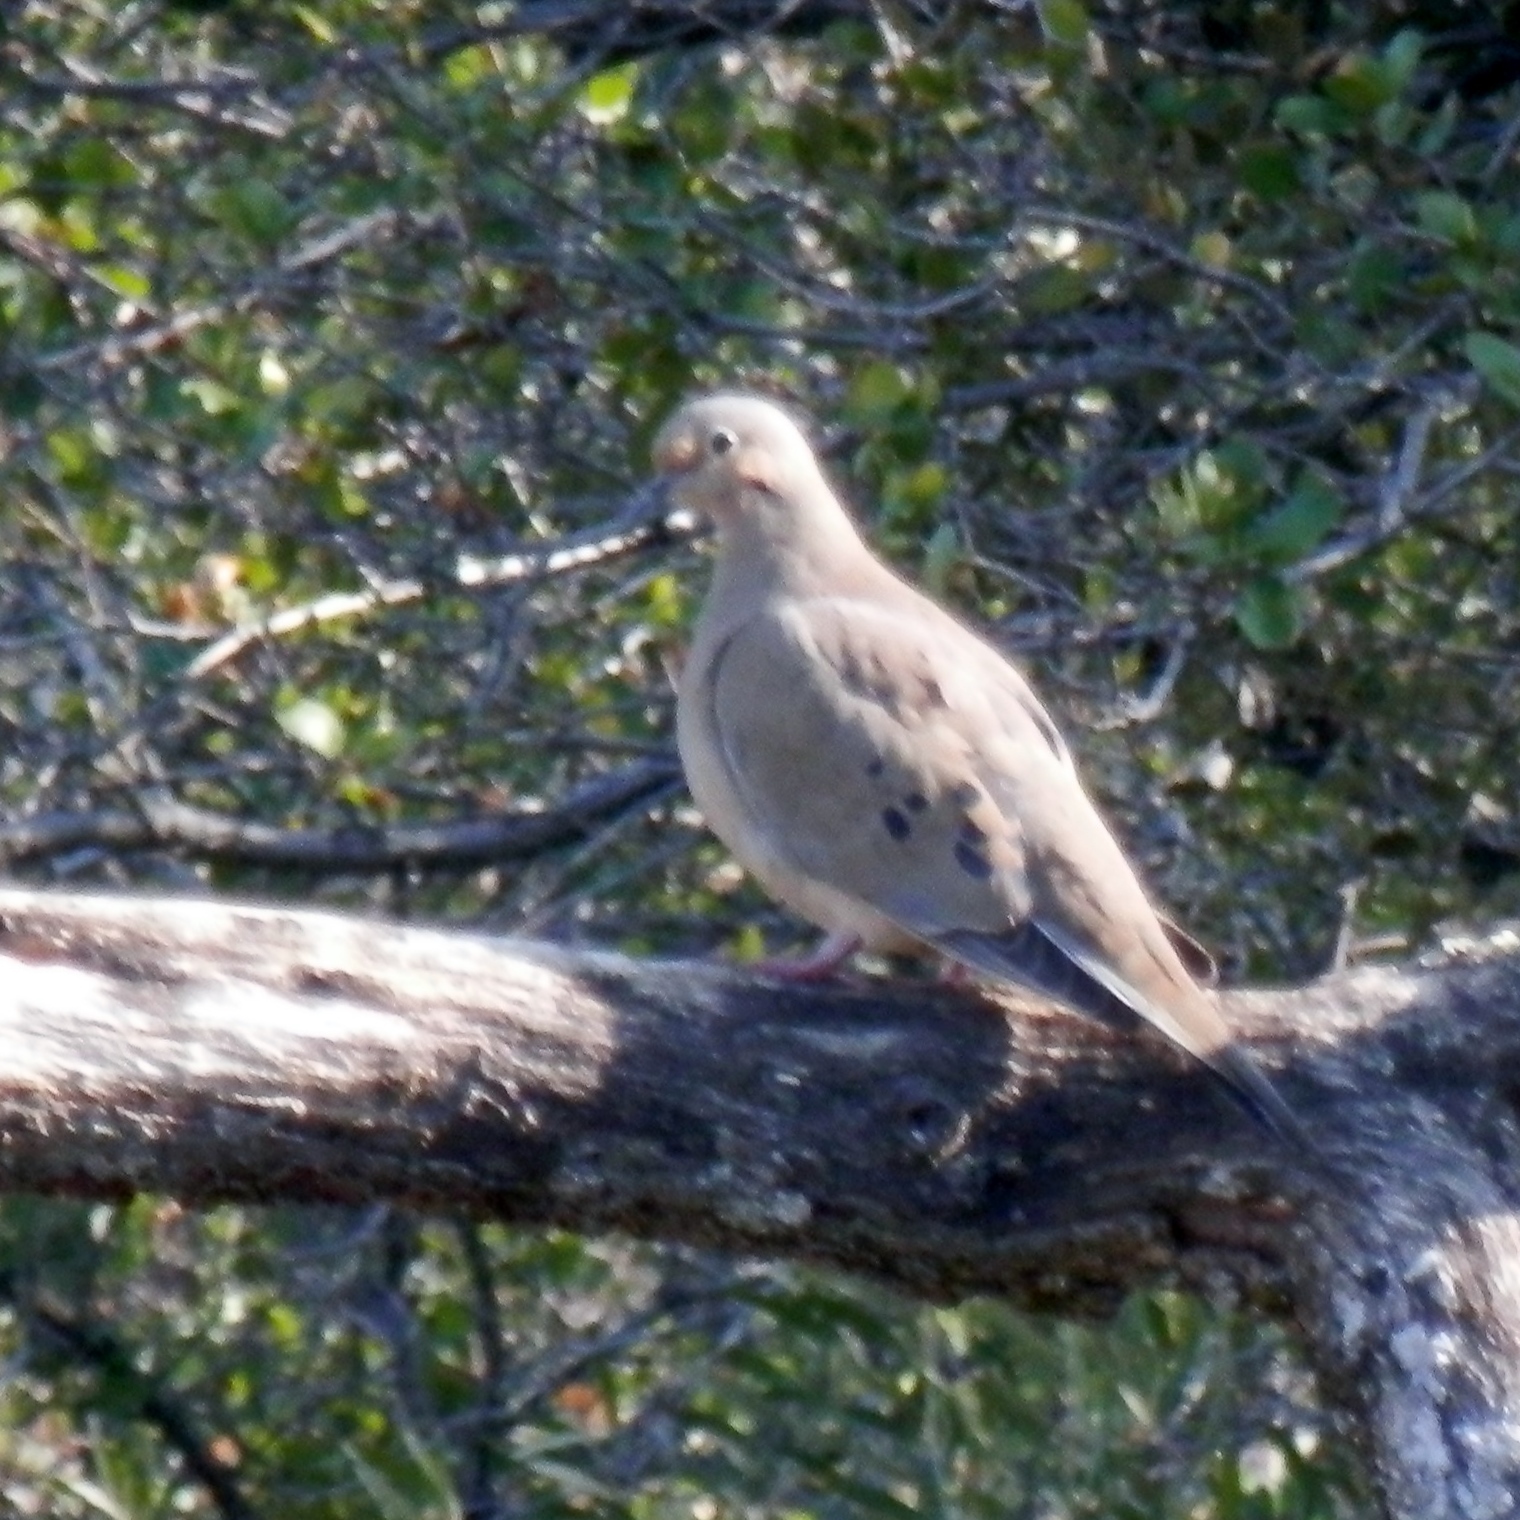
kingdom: Animalia
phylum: Chordata
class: Aves
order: Columbiformes
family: Columbidae
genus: Zenaida
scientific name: Zenaida macroura
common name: Mourning dove
